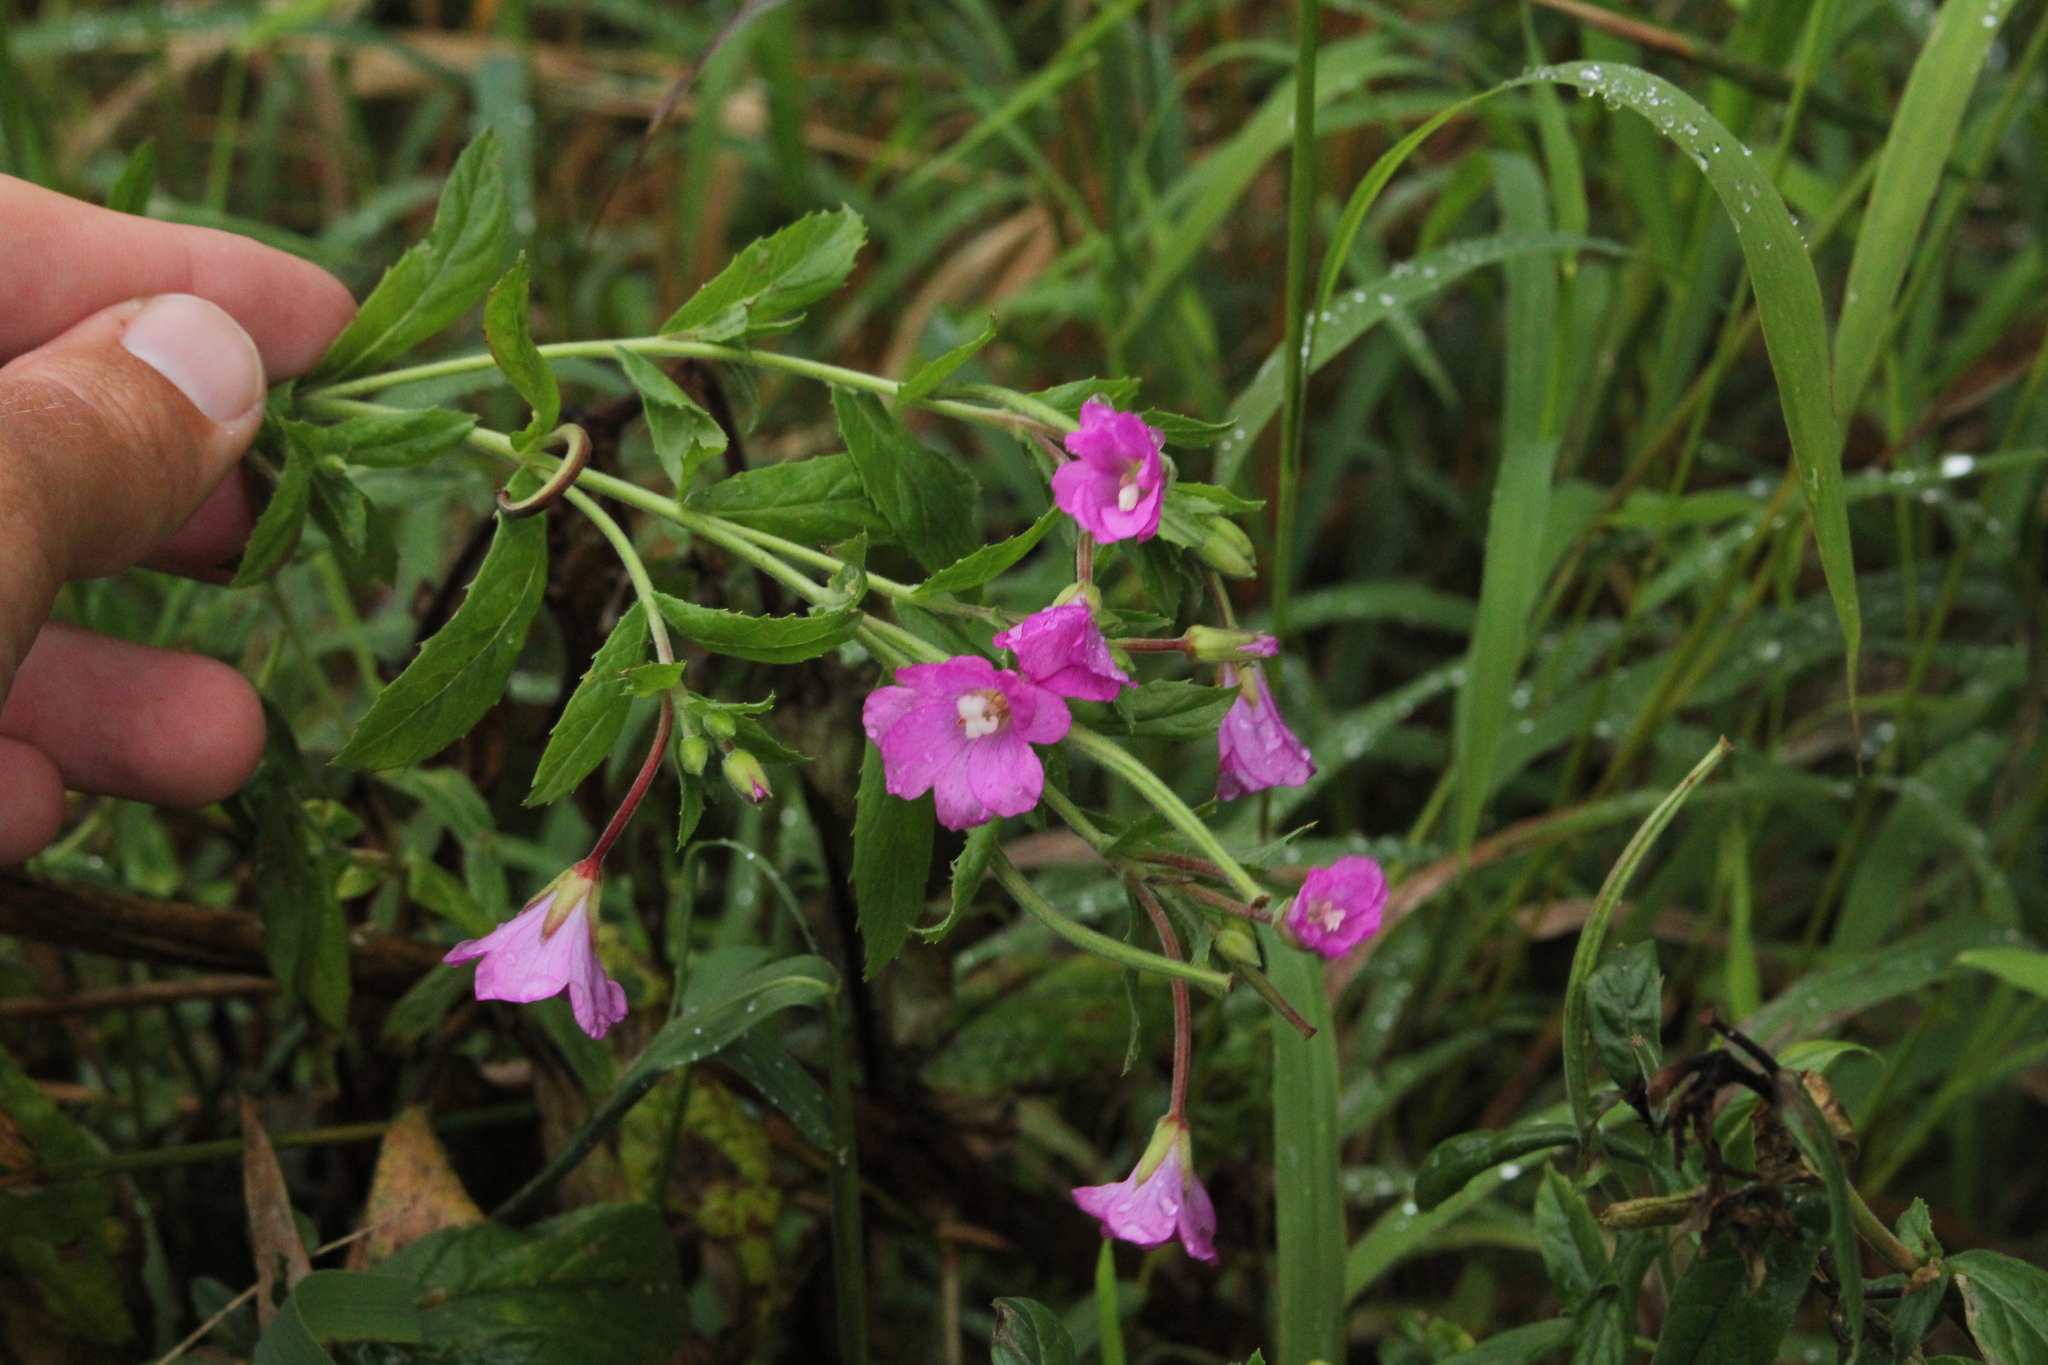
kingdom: Plantae
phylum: Tracheophyta
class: Magnoliopsida
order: Myrtales
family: Onagraceae
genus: Epilobium
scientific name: Epilobium hirsutum
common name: Great willowherb
